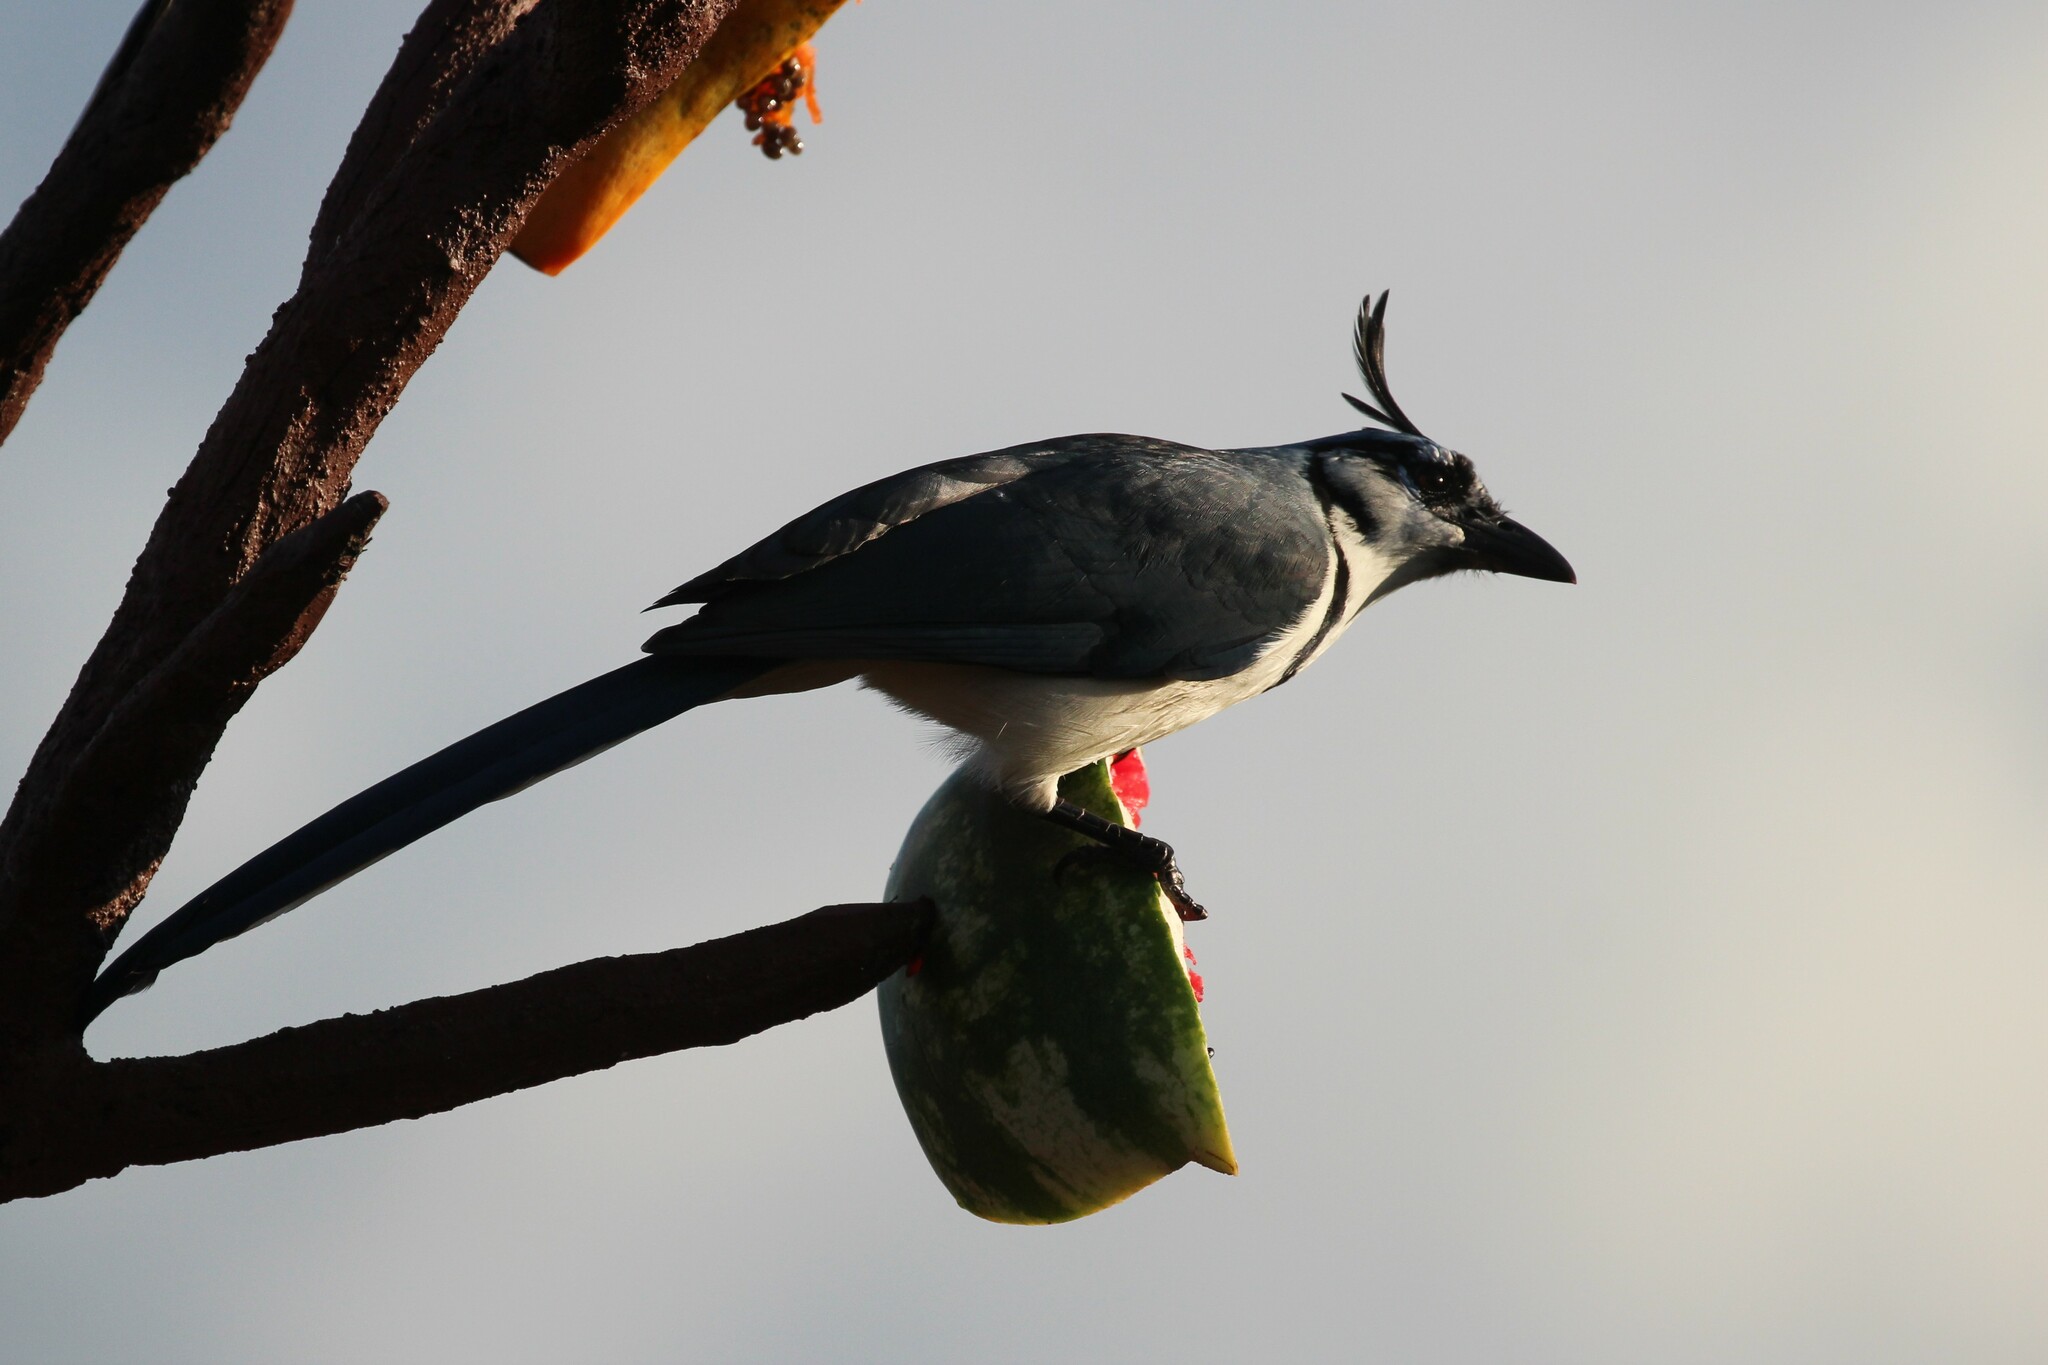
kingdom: Animalia
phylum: Chordata
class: Aves
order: Passeriformes
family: Corvidae
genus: Calocitta
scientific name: Calocitta formosa
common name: White-throated magpie-jay
